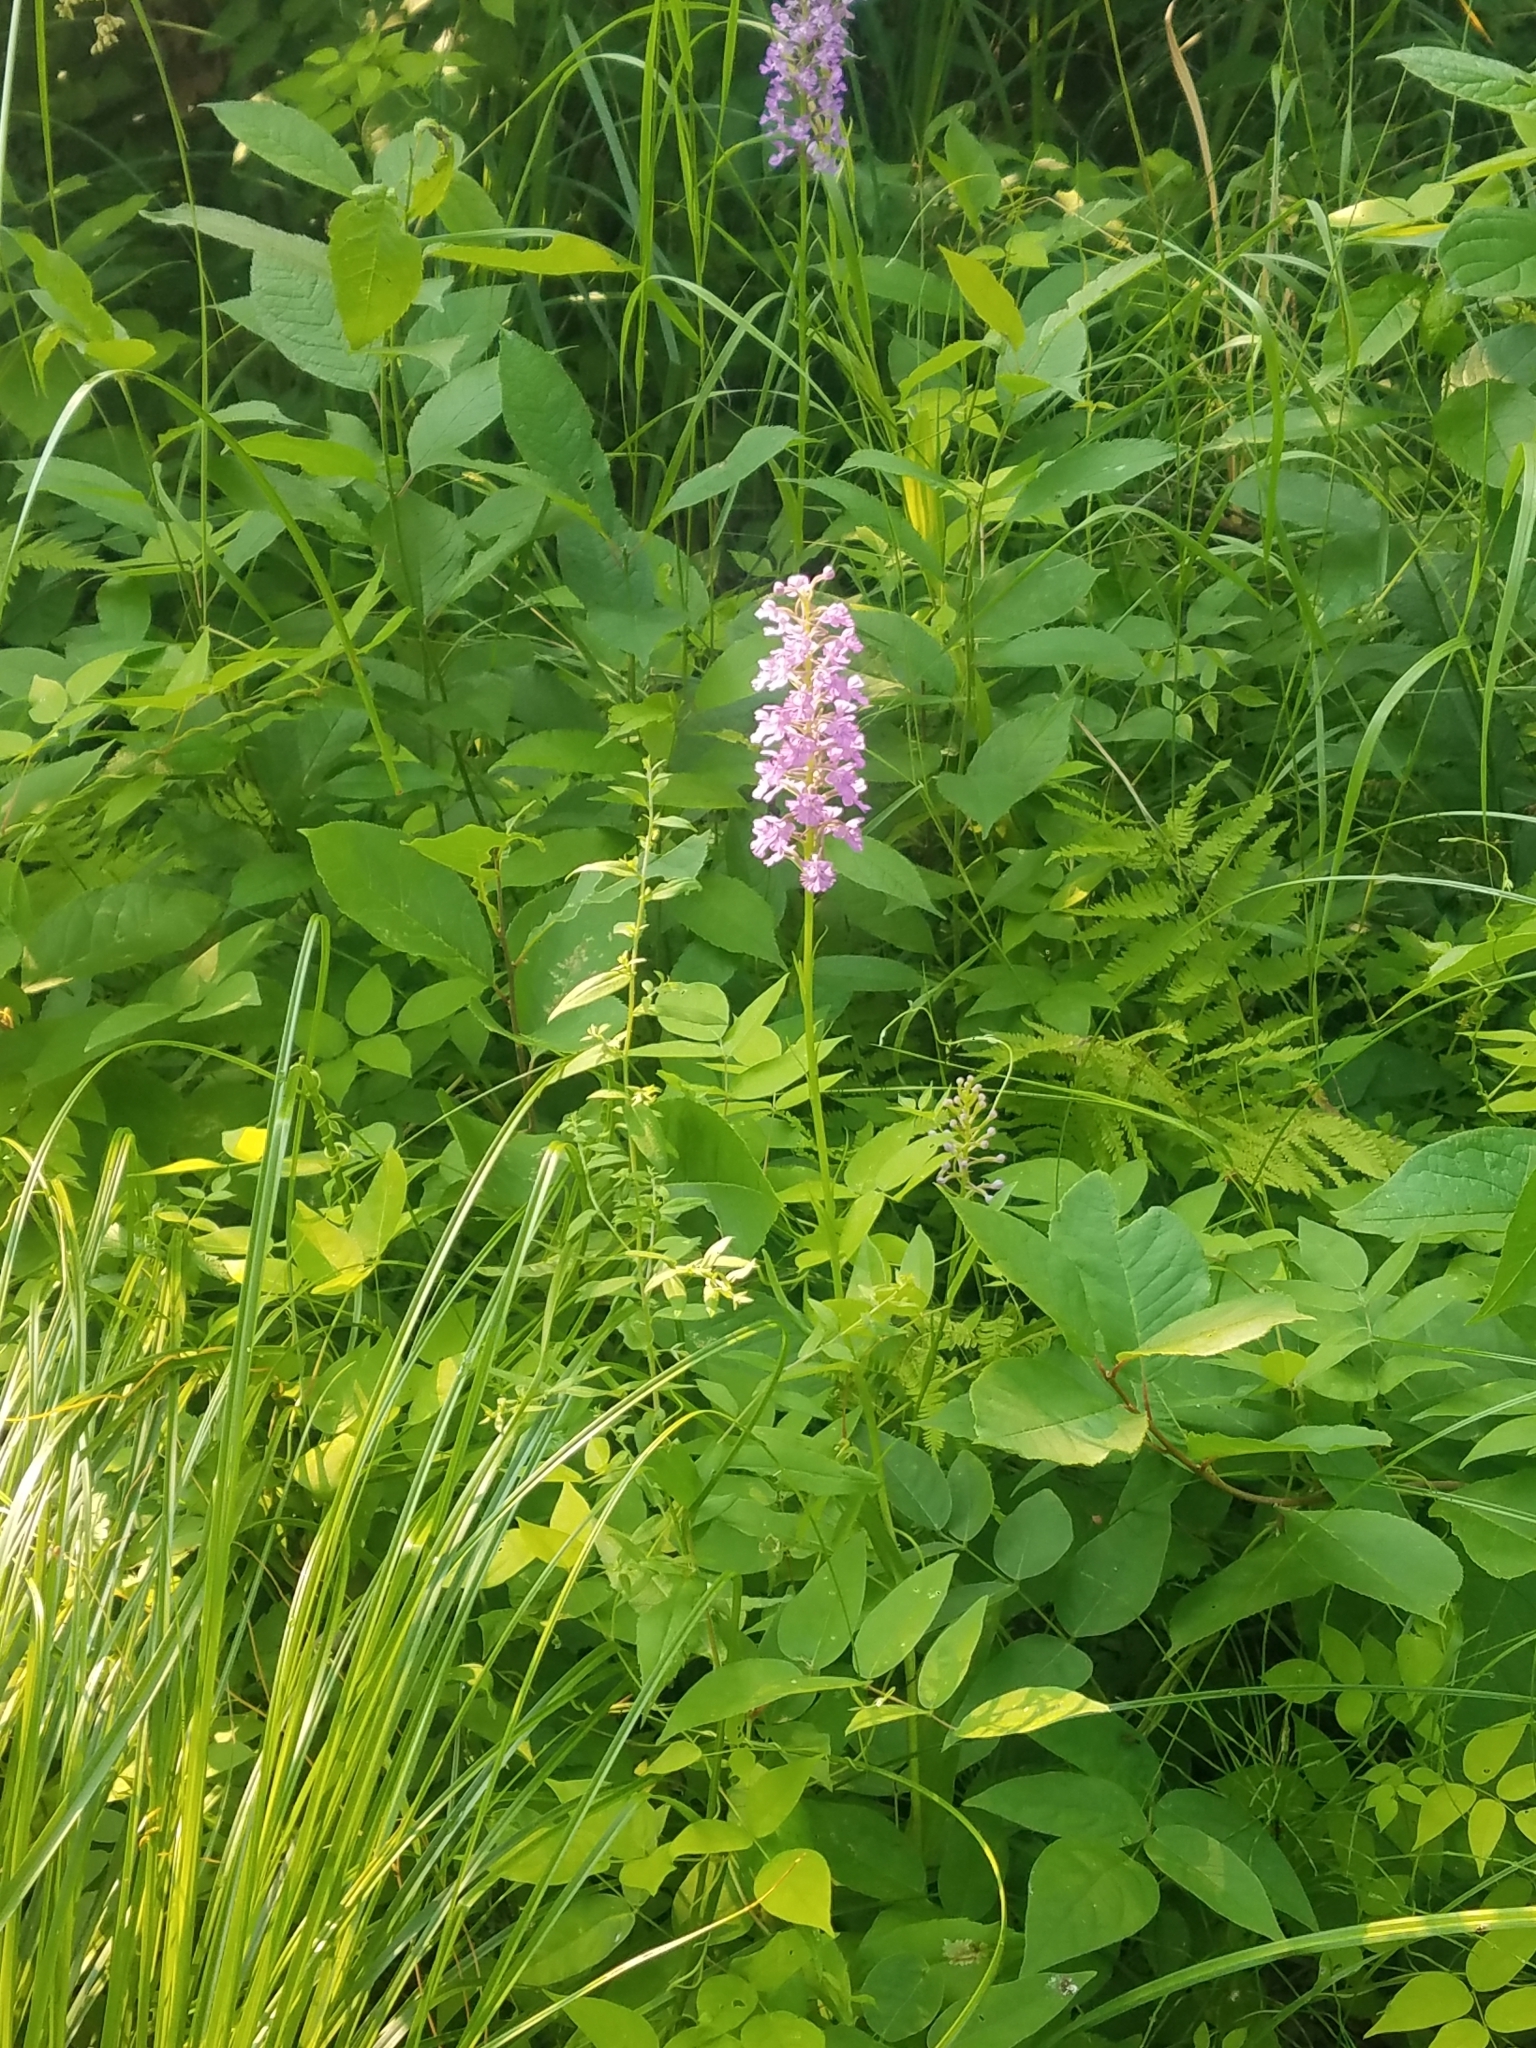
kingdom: Plantae
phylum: Tracheophyta
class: Liliopsida
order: Asparagales
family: Orchidaceae
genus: Platanthera
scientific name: Platanthera psycodes
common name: Lesser purple fringed orchid
